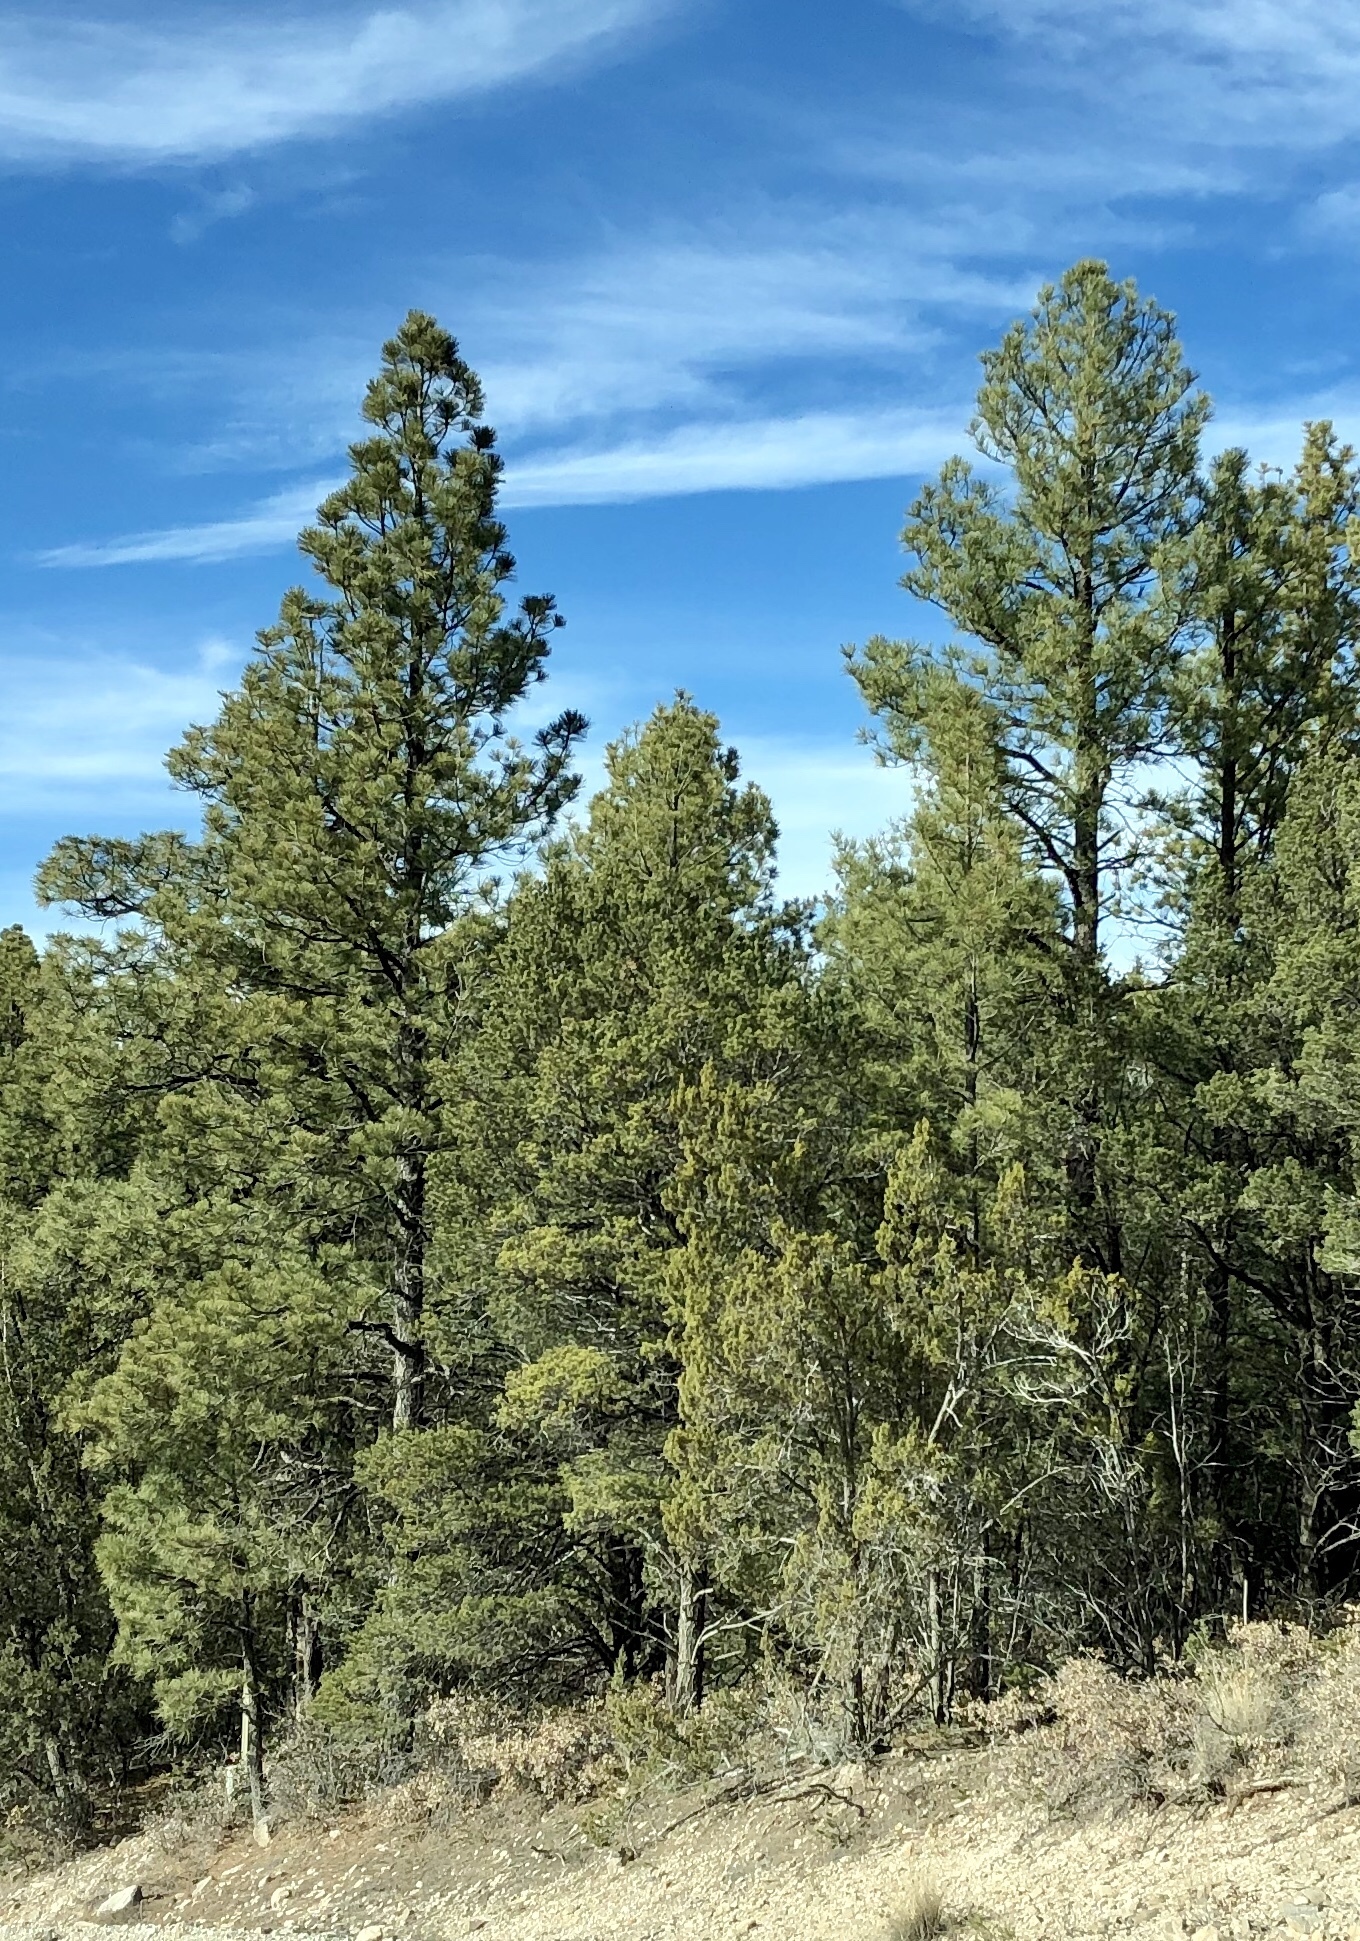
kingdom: Plantae
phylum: Tracheophyta
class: Pinopsida
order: Pinales
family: Pinaceae
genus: Pinus
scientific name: Pinus ponderosa
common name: Western yellow-pine
